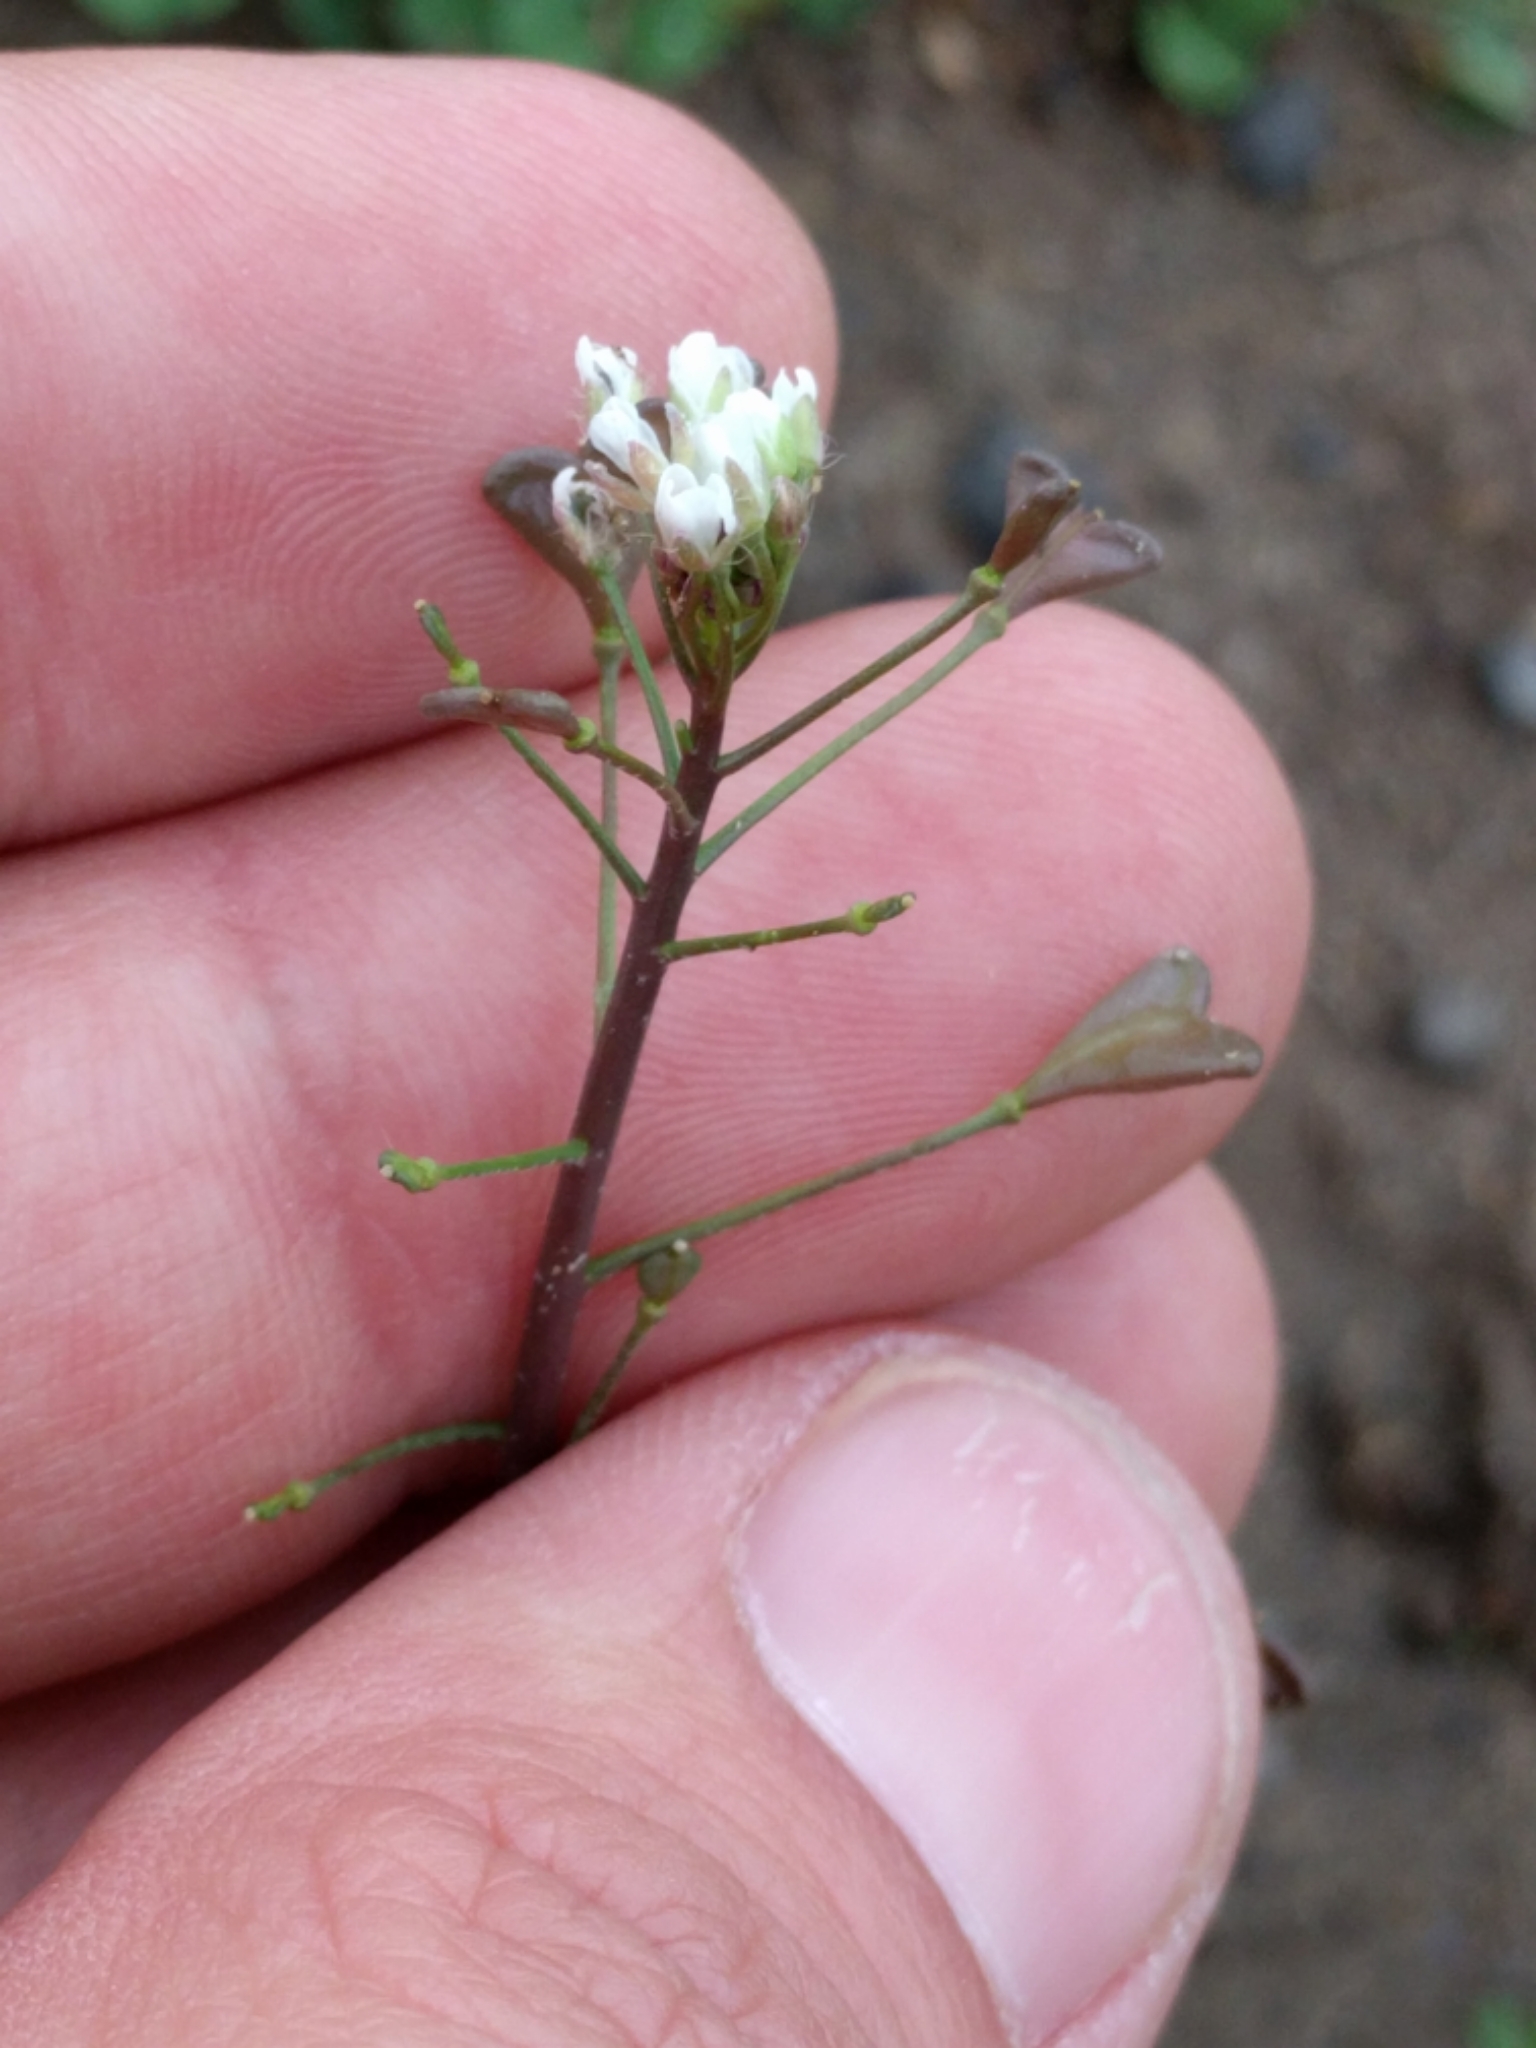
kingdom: Plantae
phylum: Tracheophyta
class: Magnoliopsida
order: Brassicales
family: Brassicaceae
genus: Capsella
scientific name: Capsella bursa-pastoris
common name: Shepherd's purse
